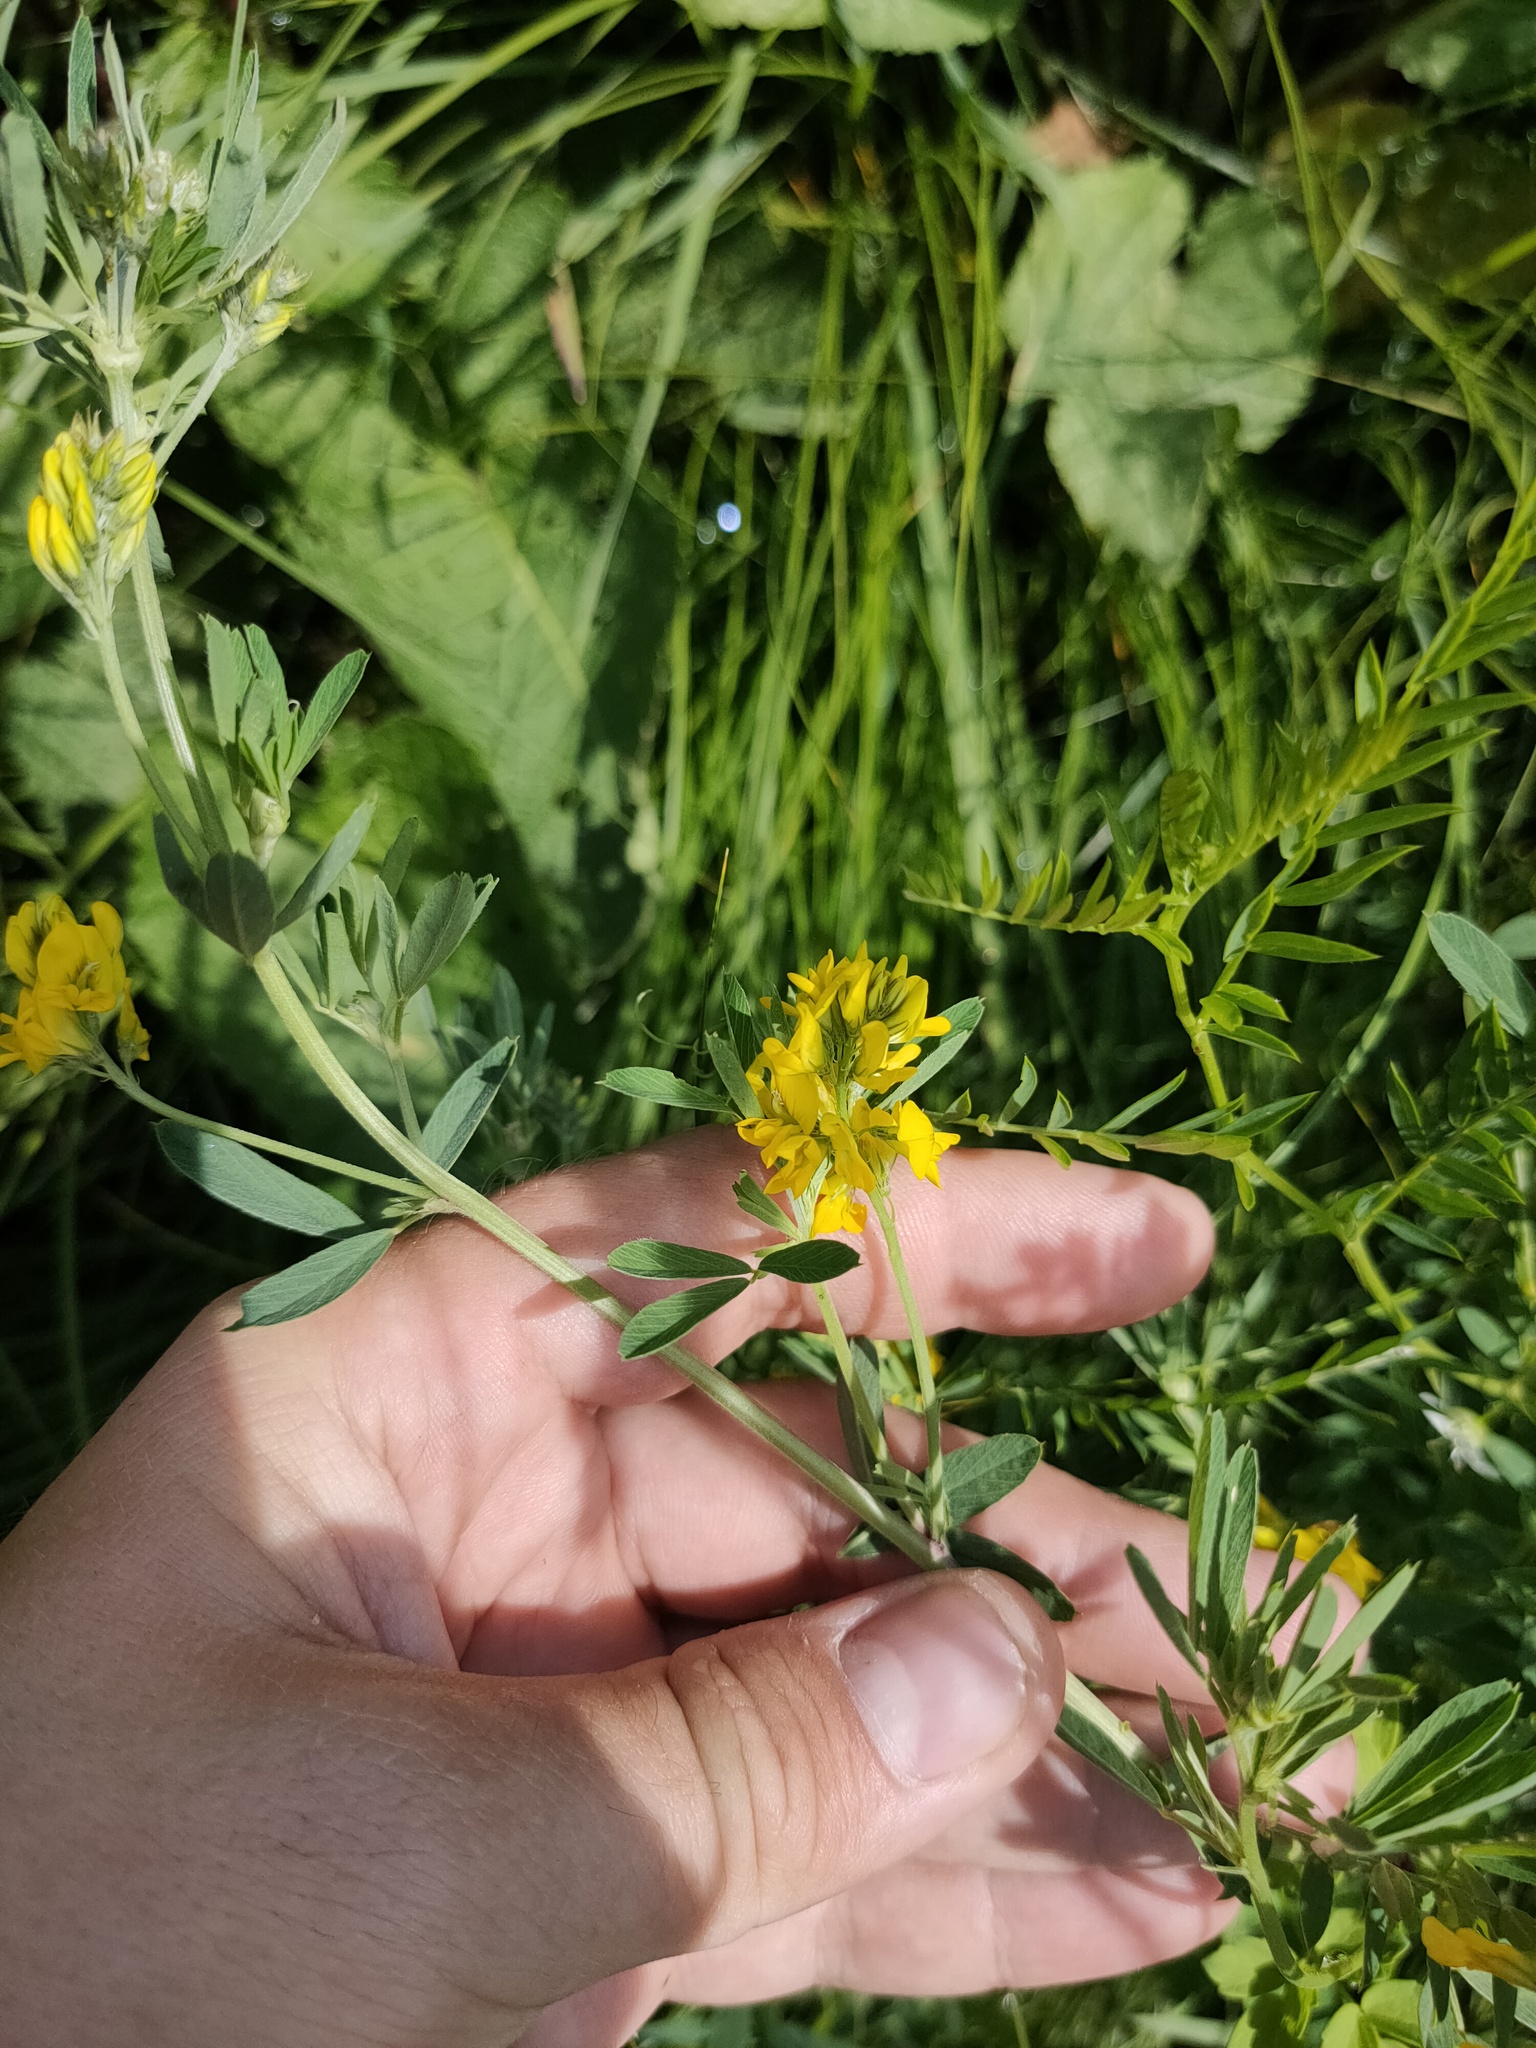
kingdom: Plantae
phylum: Tracheophyta
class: Magnoliopsida
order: Fabales
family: Fabaceae
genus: Medicago
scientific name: Medicago falcata
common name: Sickle medick
